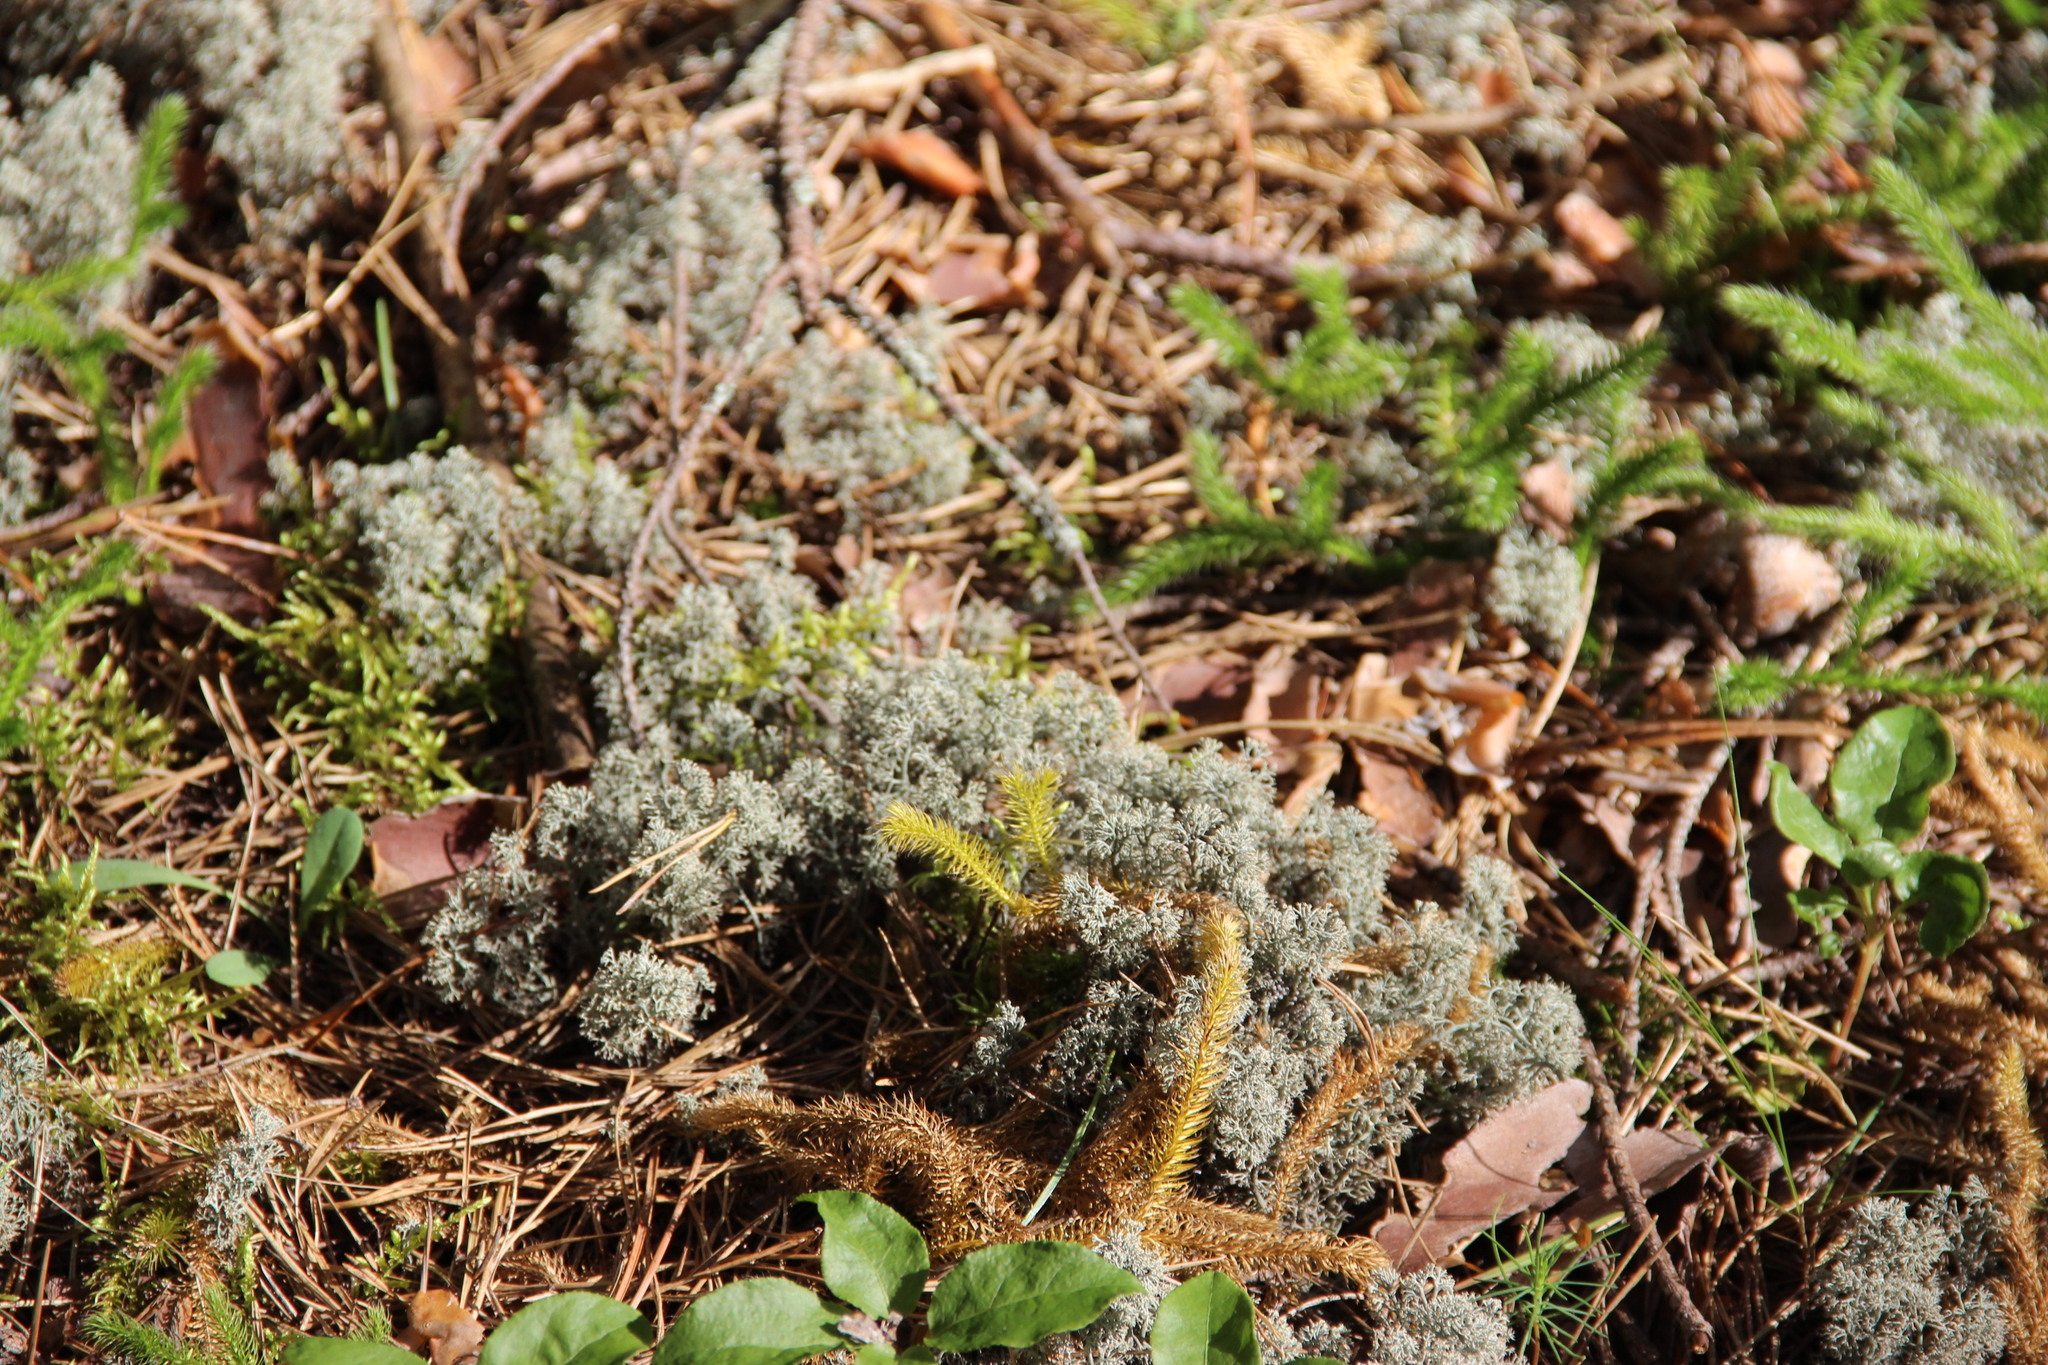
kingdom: Fungi
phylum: Ascomycota
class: Lecanoromycetes
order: Lecanorales
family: Cladoniaceae
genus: Cladonia
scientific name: Cladonia arbuscula
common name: Reindeer lichen
